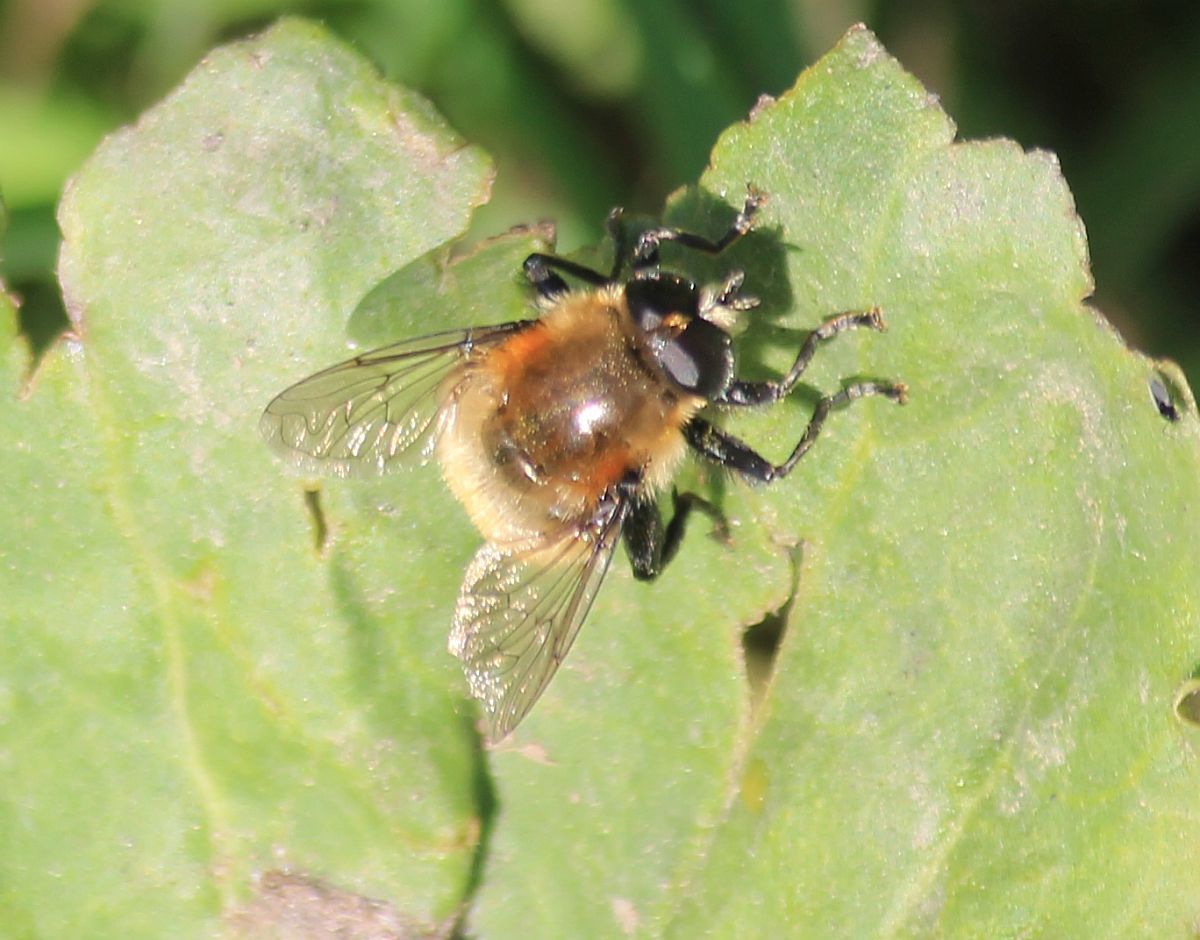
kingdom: Animalia
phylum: Arthropoda
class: Insecta
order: Diptera
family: Syrphidae
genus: Merodon
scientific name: Merodon equestris
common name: Greater bulb-fly
